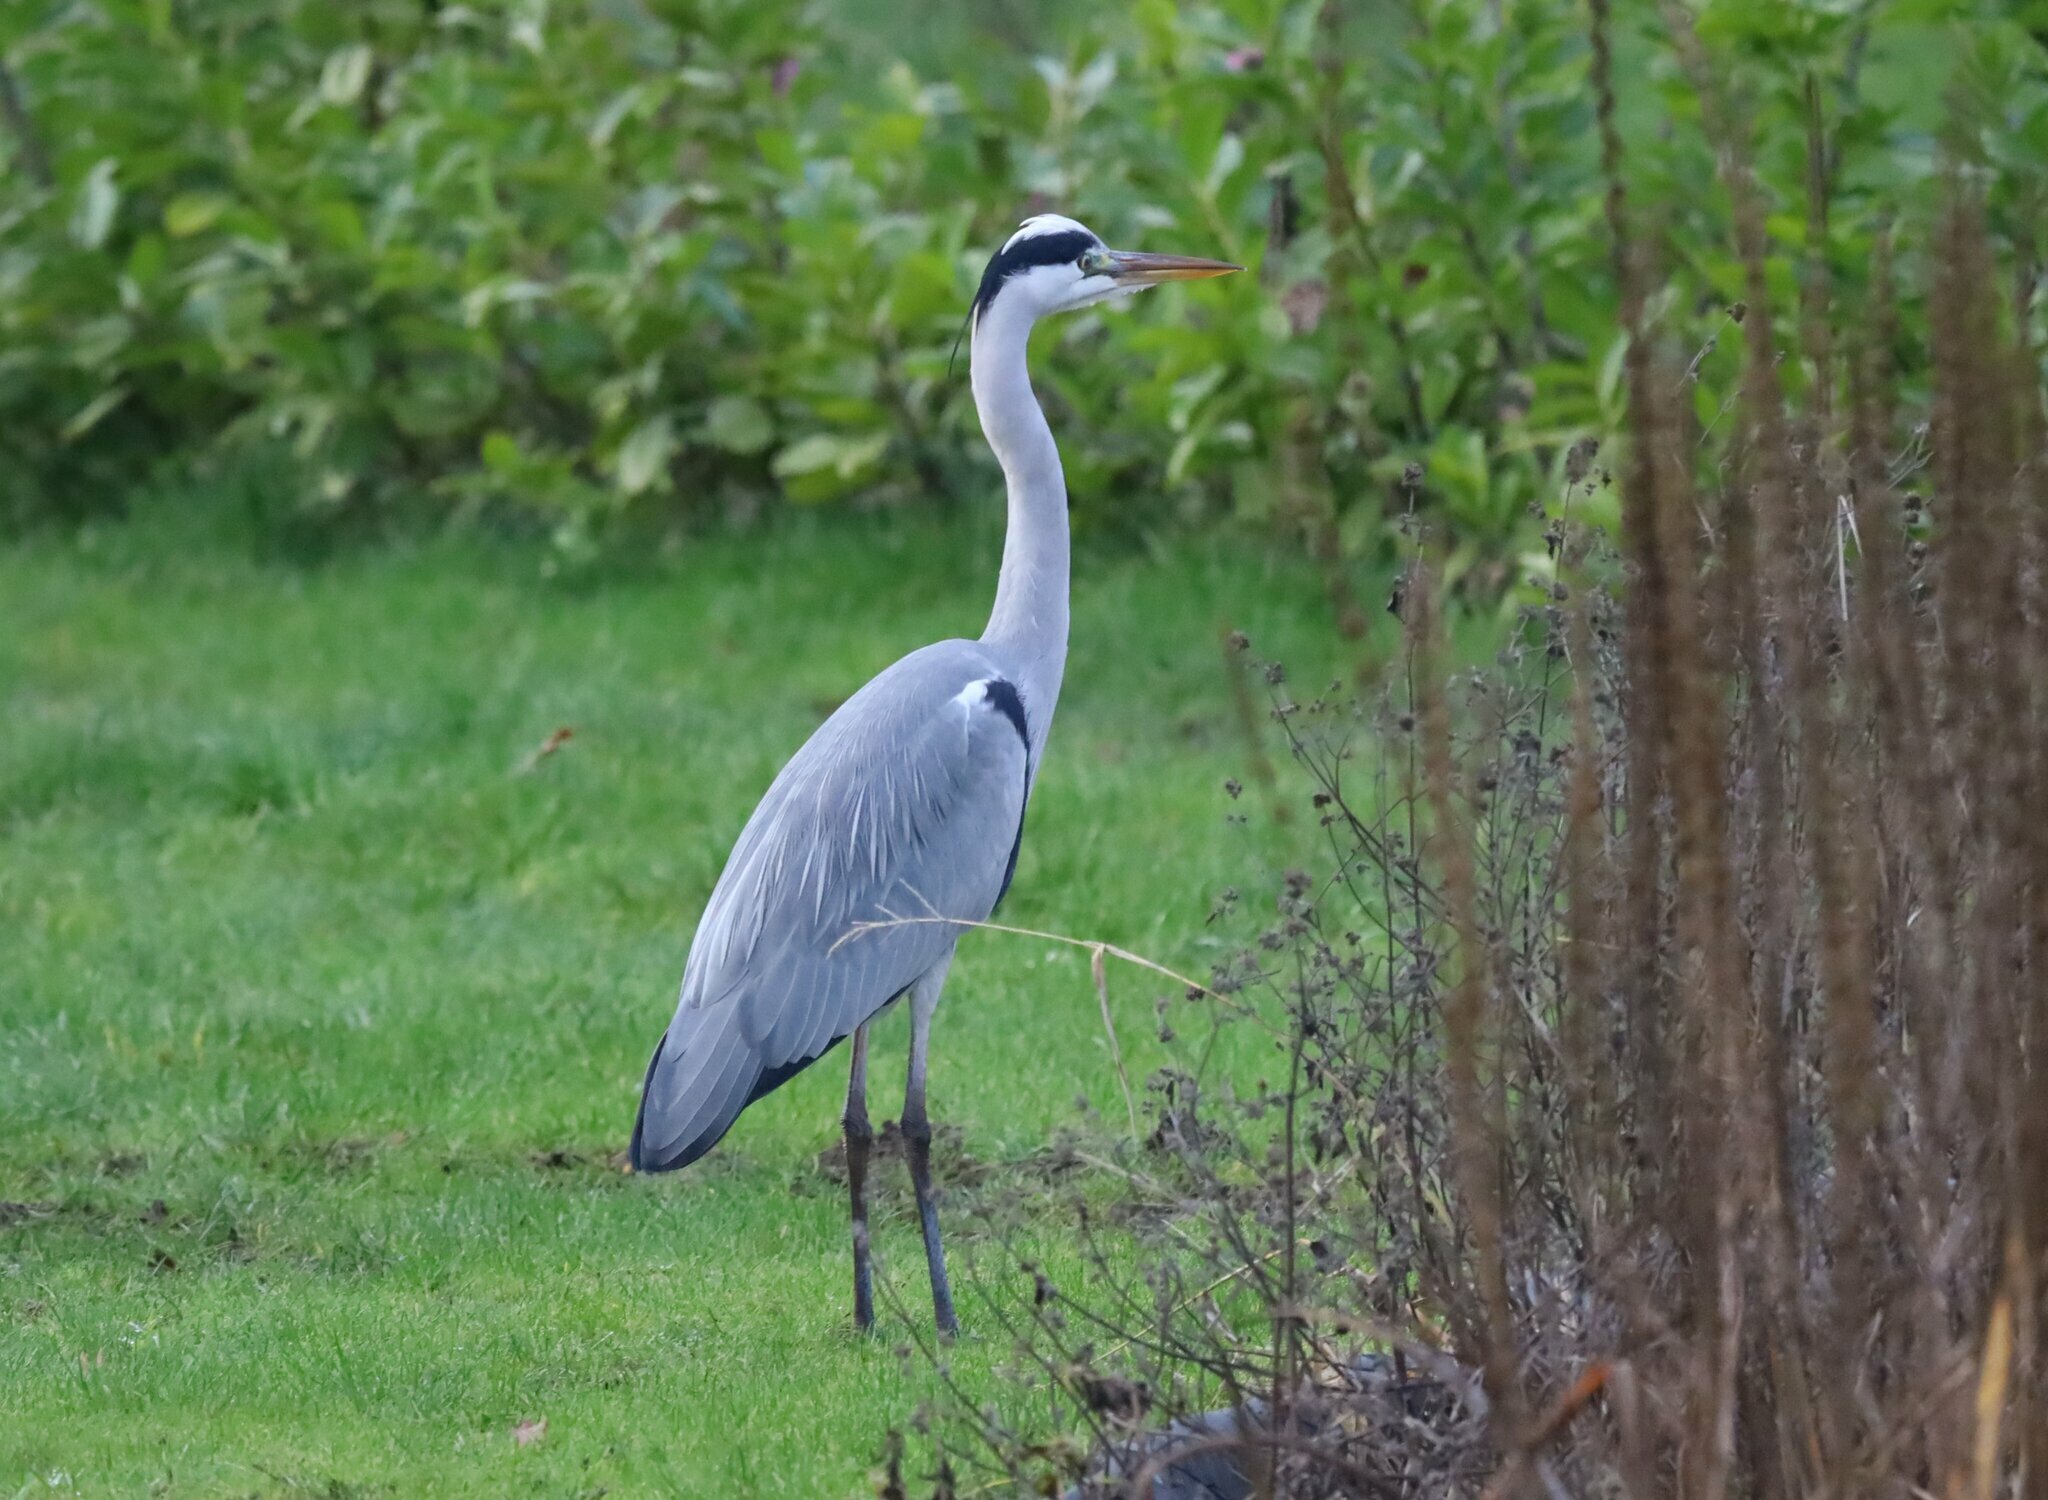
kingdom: Animalia
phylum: Chordata
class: Aves
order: Pelecaniformes
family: Ardeidae
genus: Ardea
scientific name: Ardea cinerea
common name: Grey heron
